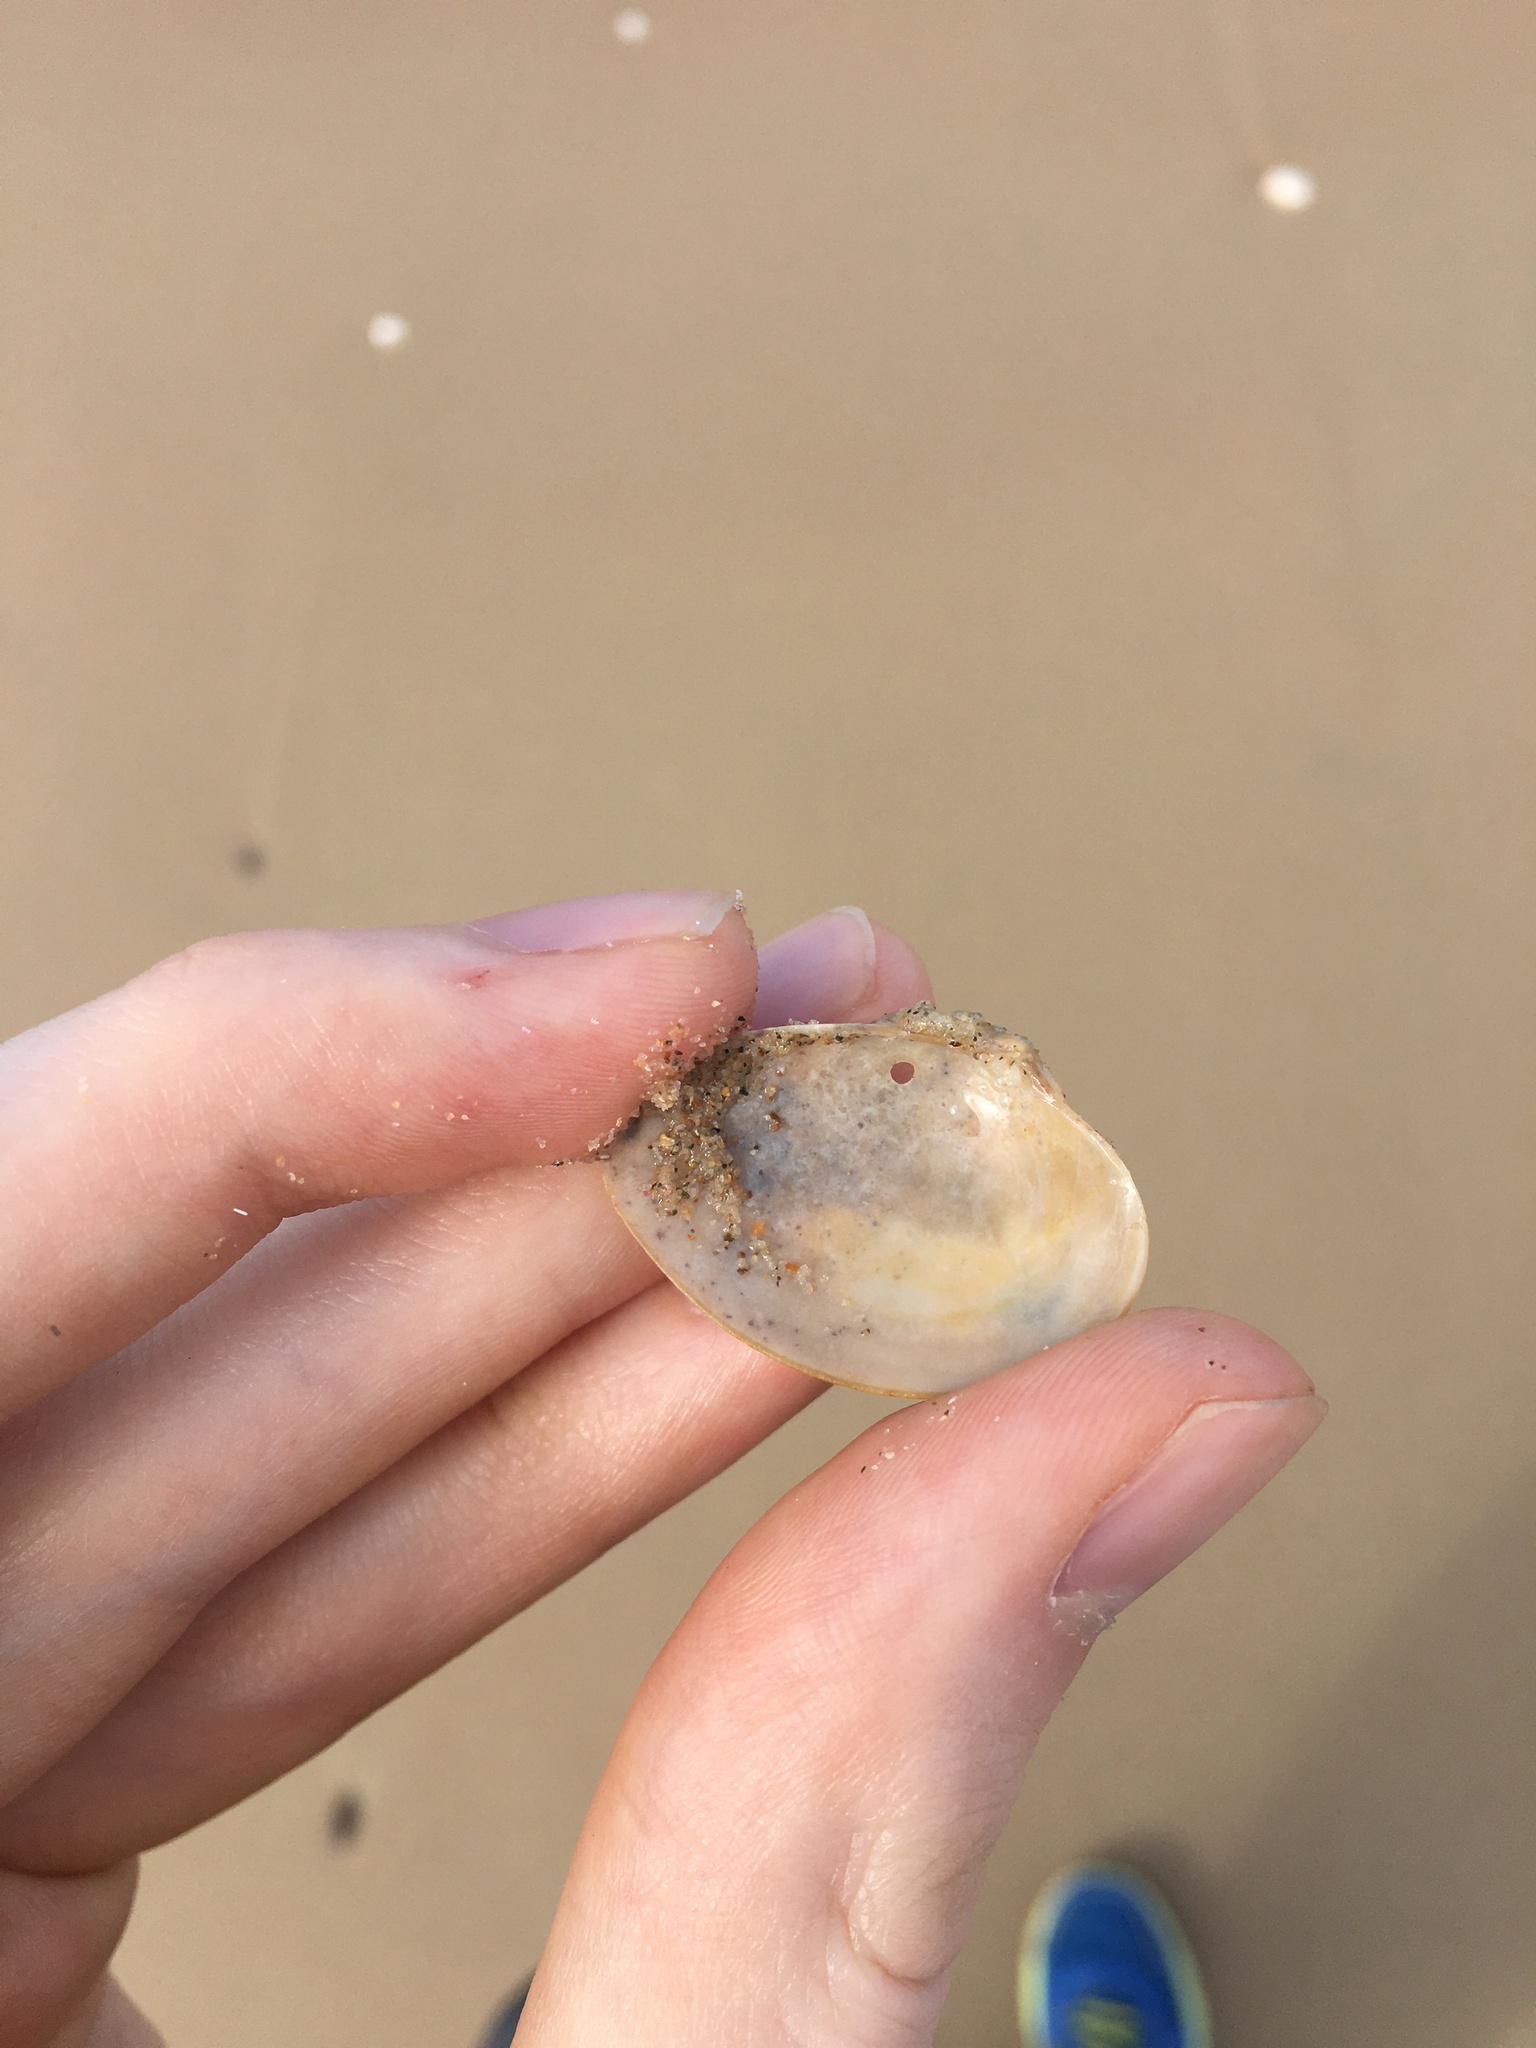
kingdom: Animalia
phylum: Mollusca
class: Bivalvia
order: Venerida
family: Veneridae
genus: Eumarcia
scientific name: Eumarcia fumigata
